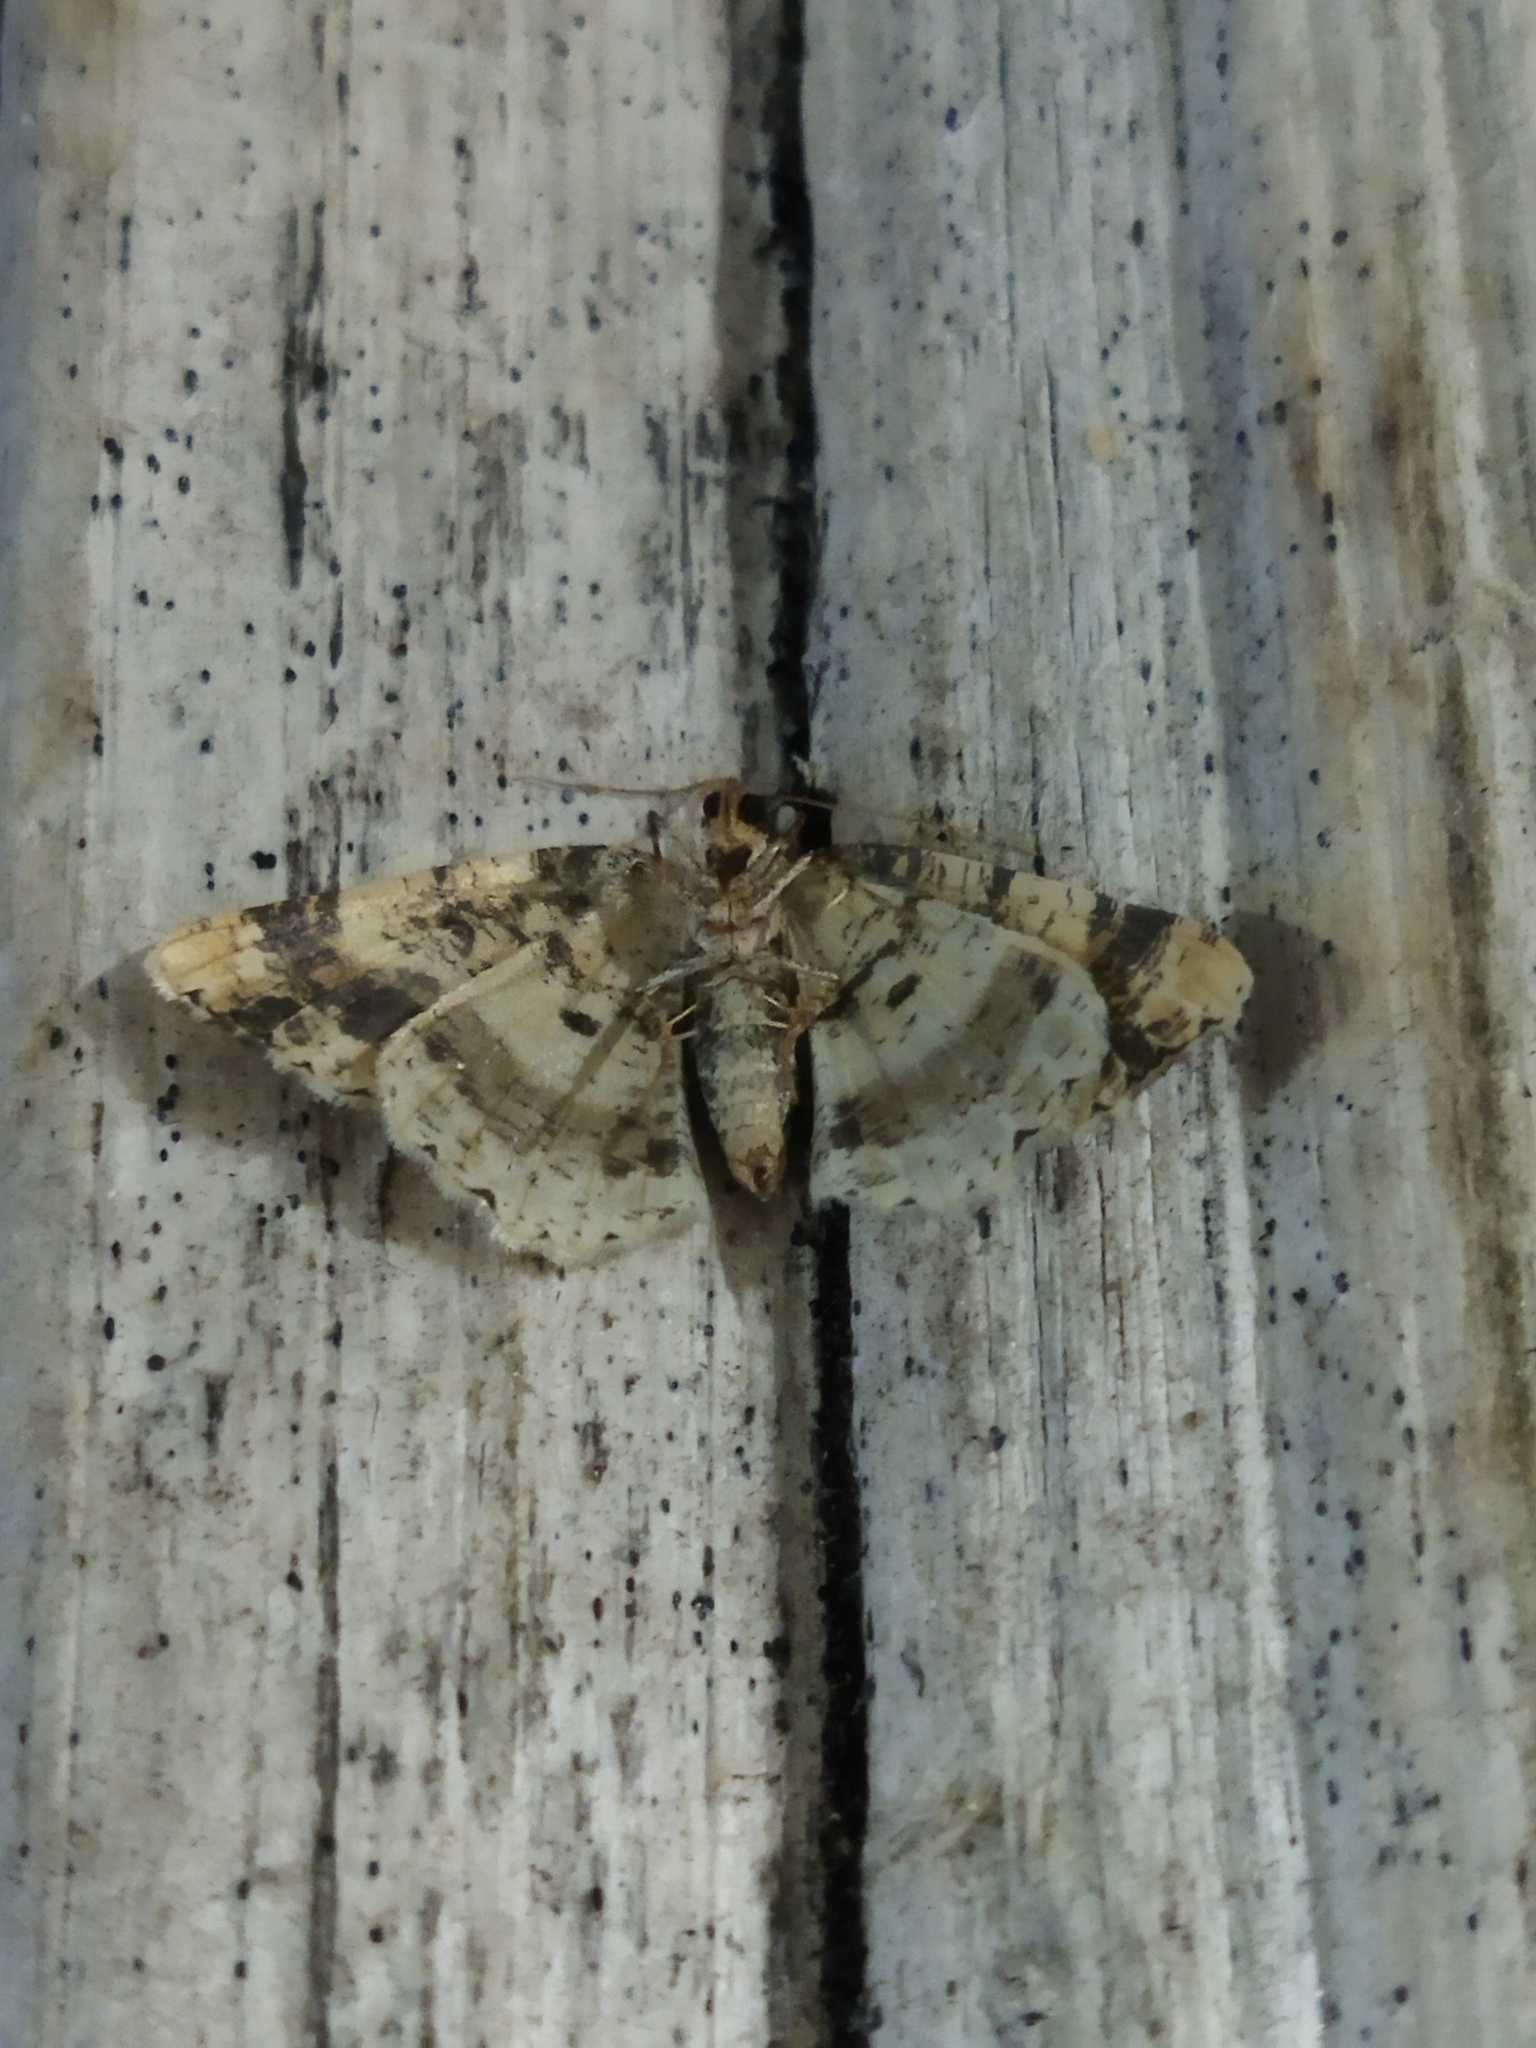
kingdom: Animalia
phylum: Arthropoda
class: Insecta
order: Lepidoptera
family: Geometridae
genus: Ligdia
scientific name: Ligdia adustata
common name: Scorched carpet
